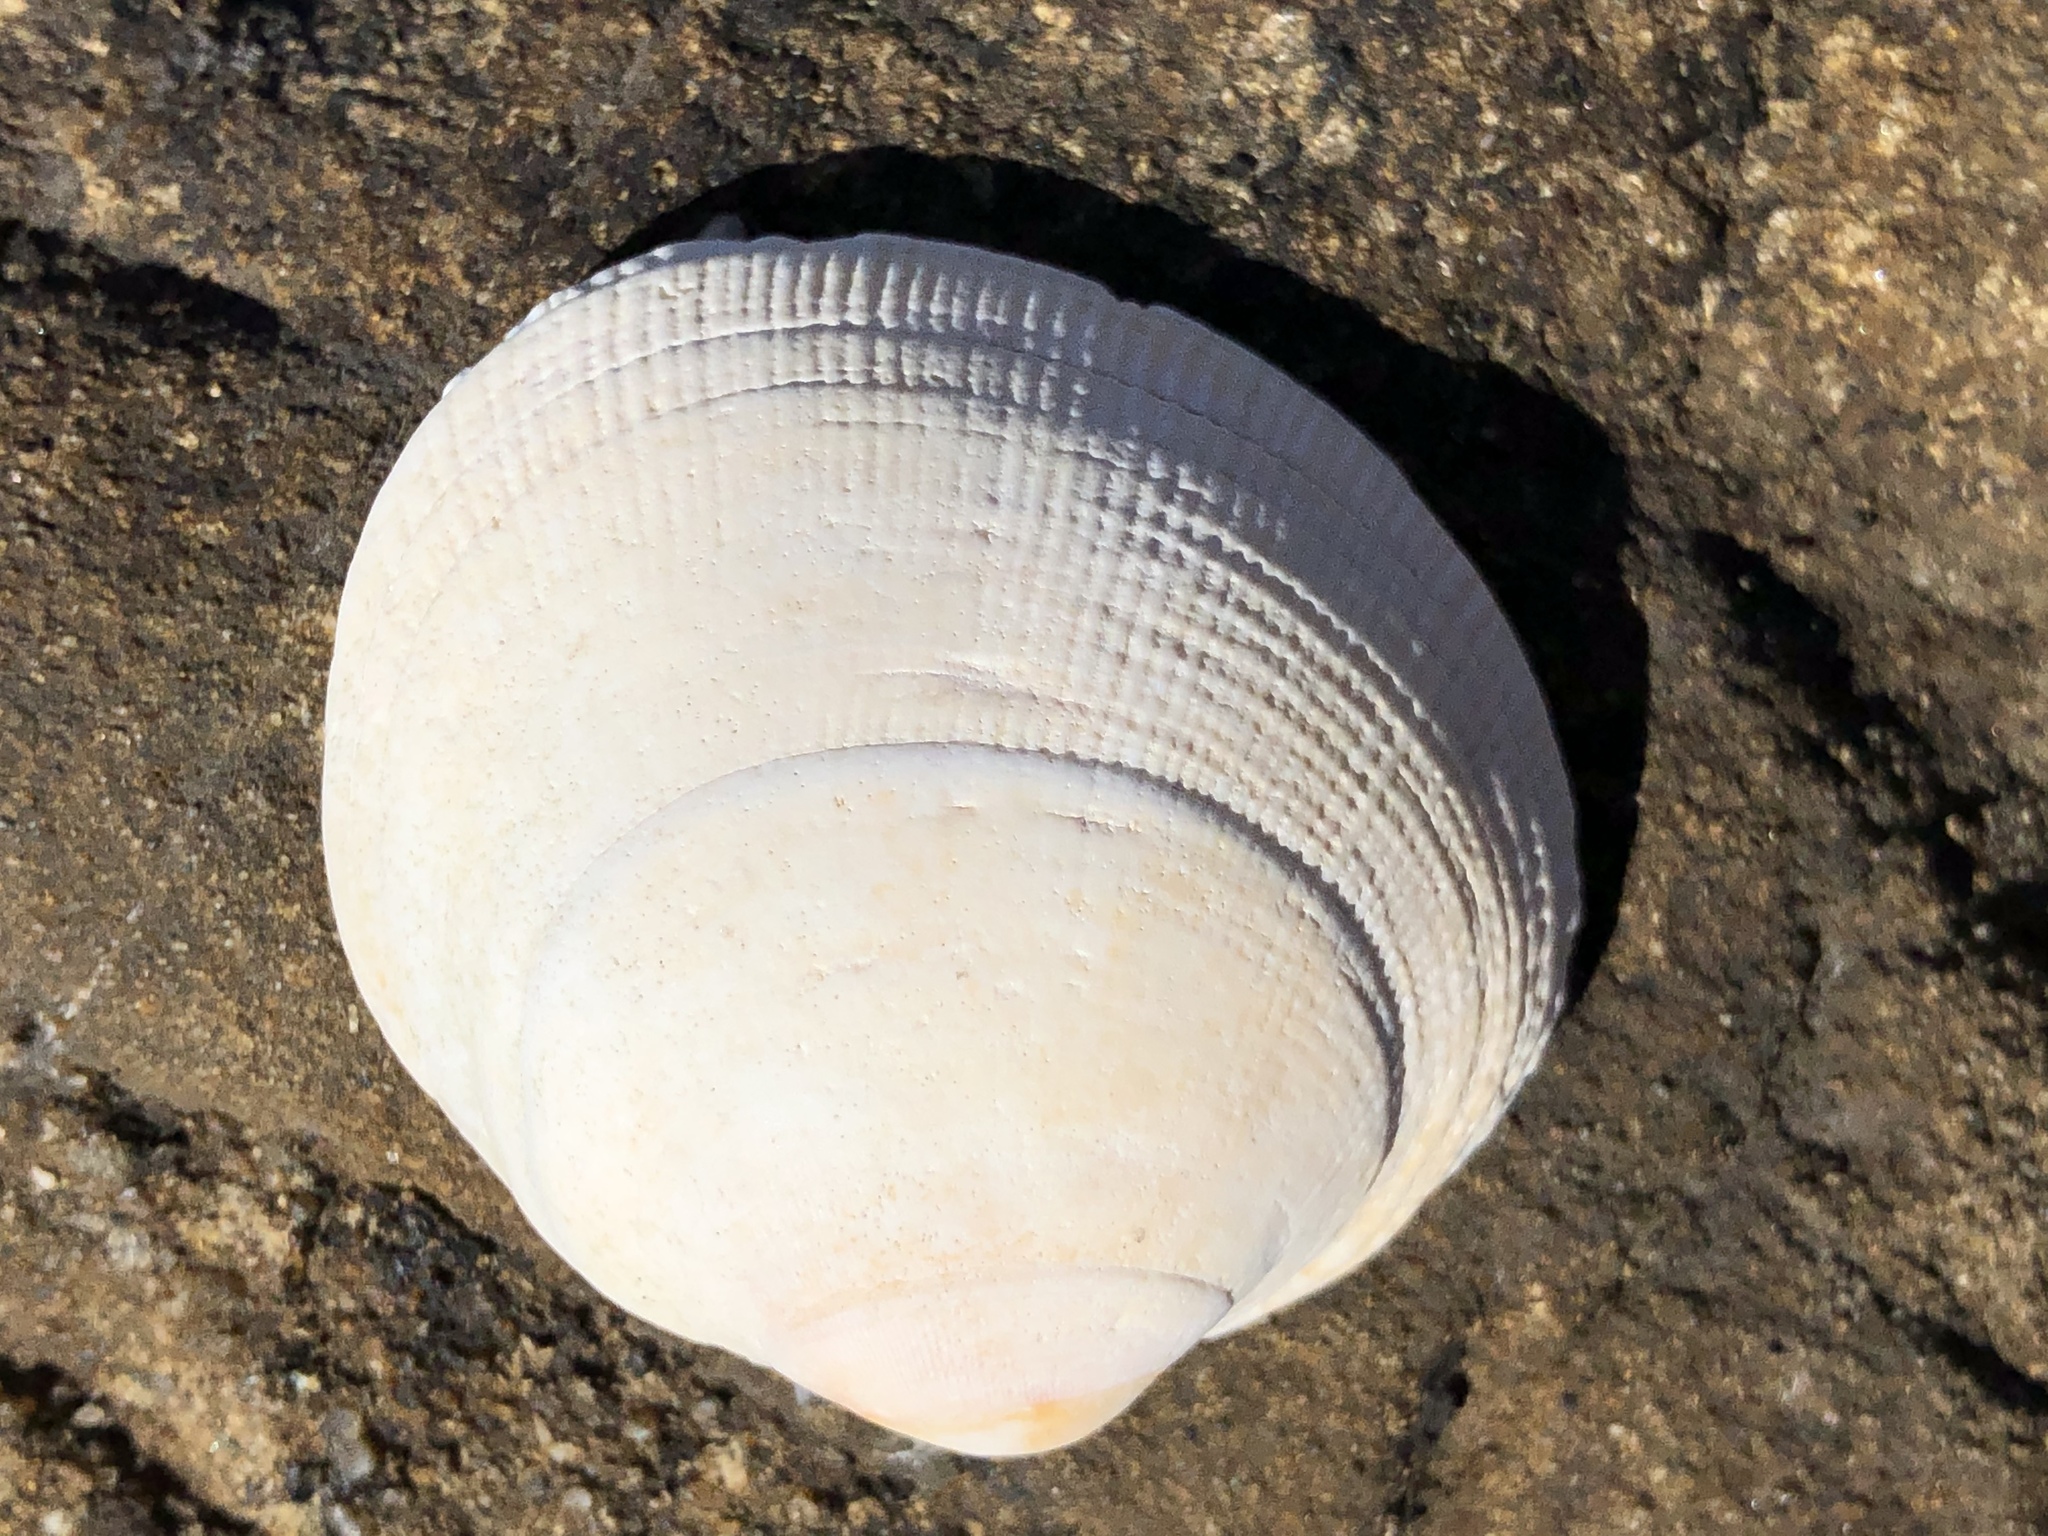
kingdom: Animalia
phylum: Mollusca
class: Bivalvia
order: Venerida
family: Veneridae
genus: Leukoma
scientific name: Leukoma staminea
